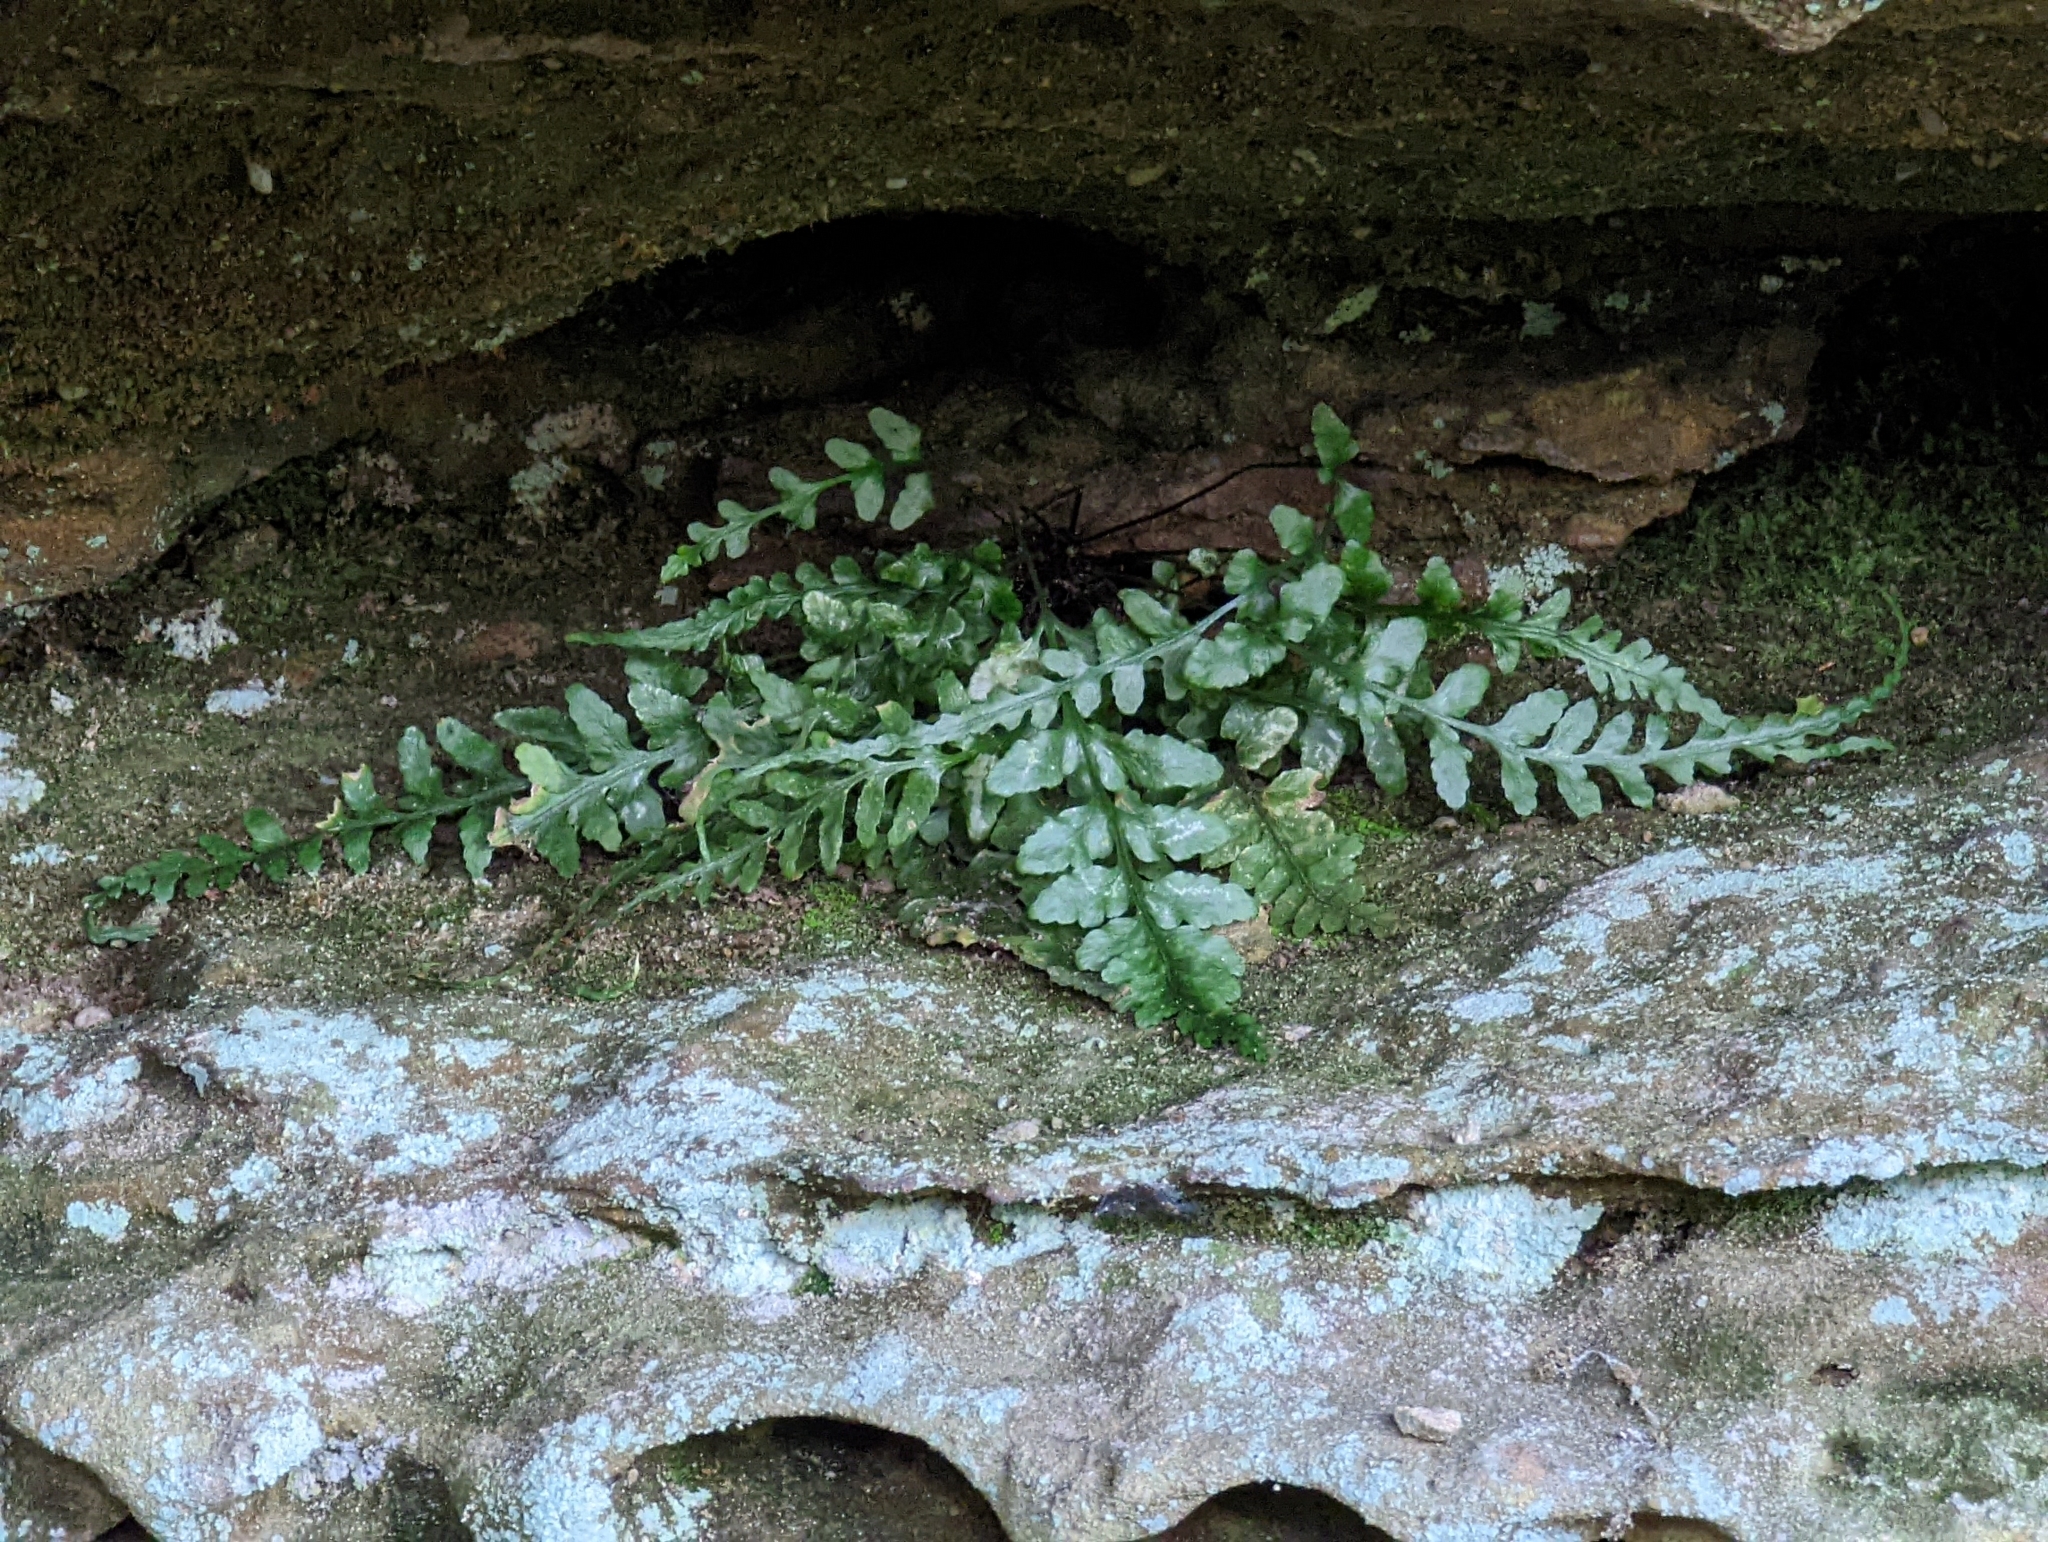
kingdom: Plantae
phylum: Tracheophyta
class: Polypodiopsida
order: Polypodiales
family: Aspleniaceae
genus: Asplenium
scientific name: Asplenium pinnatifidum
